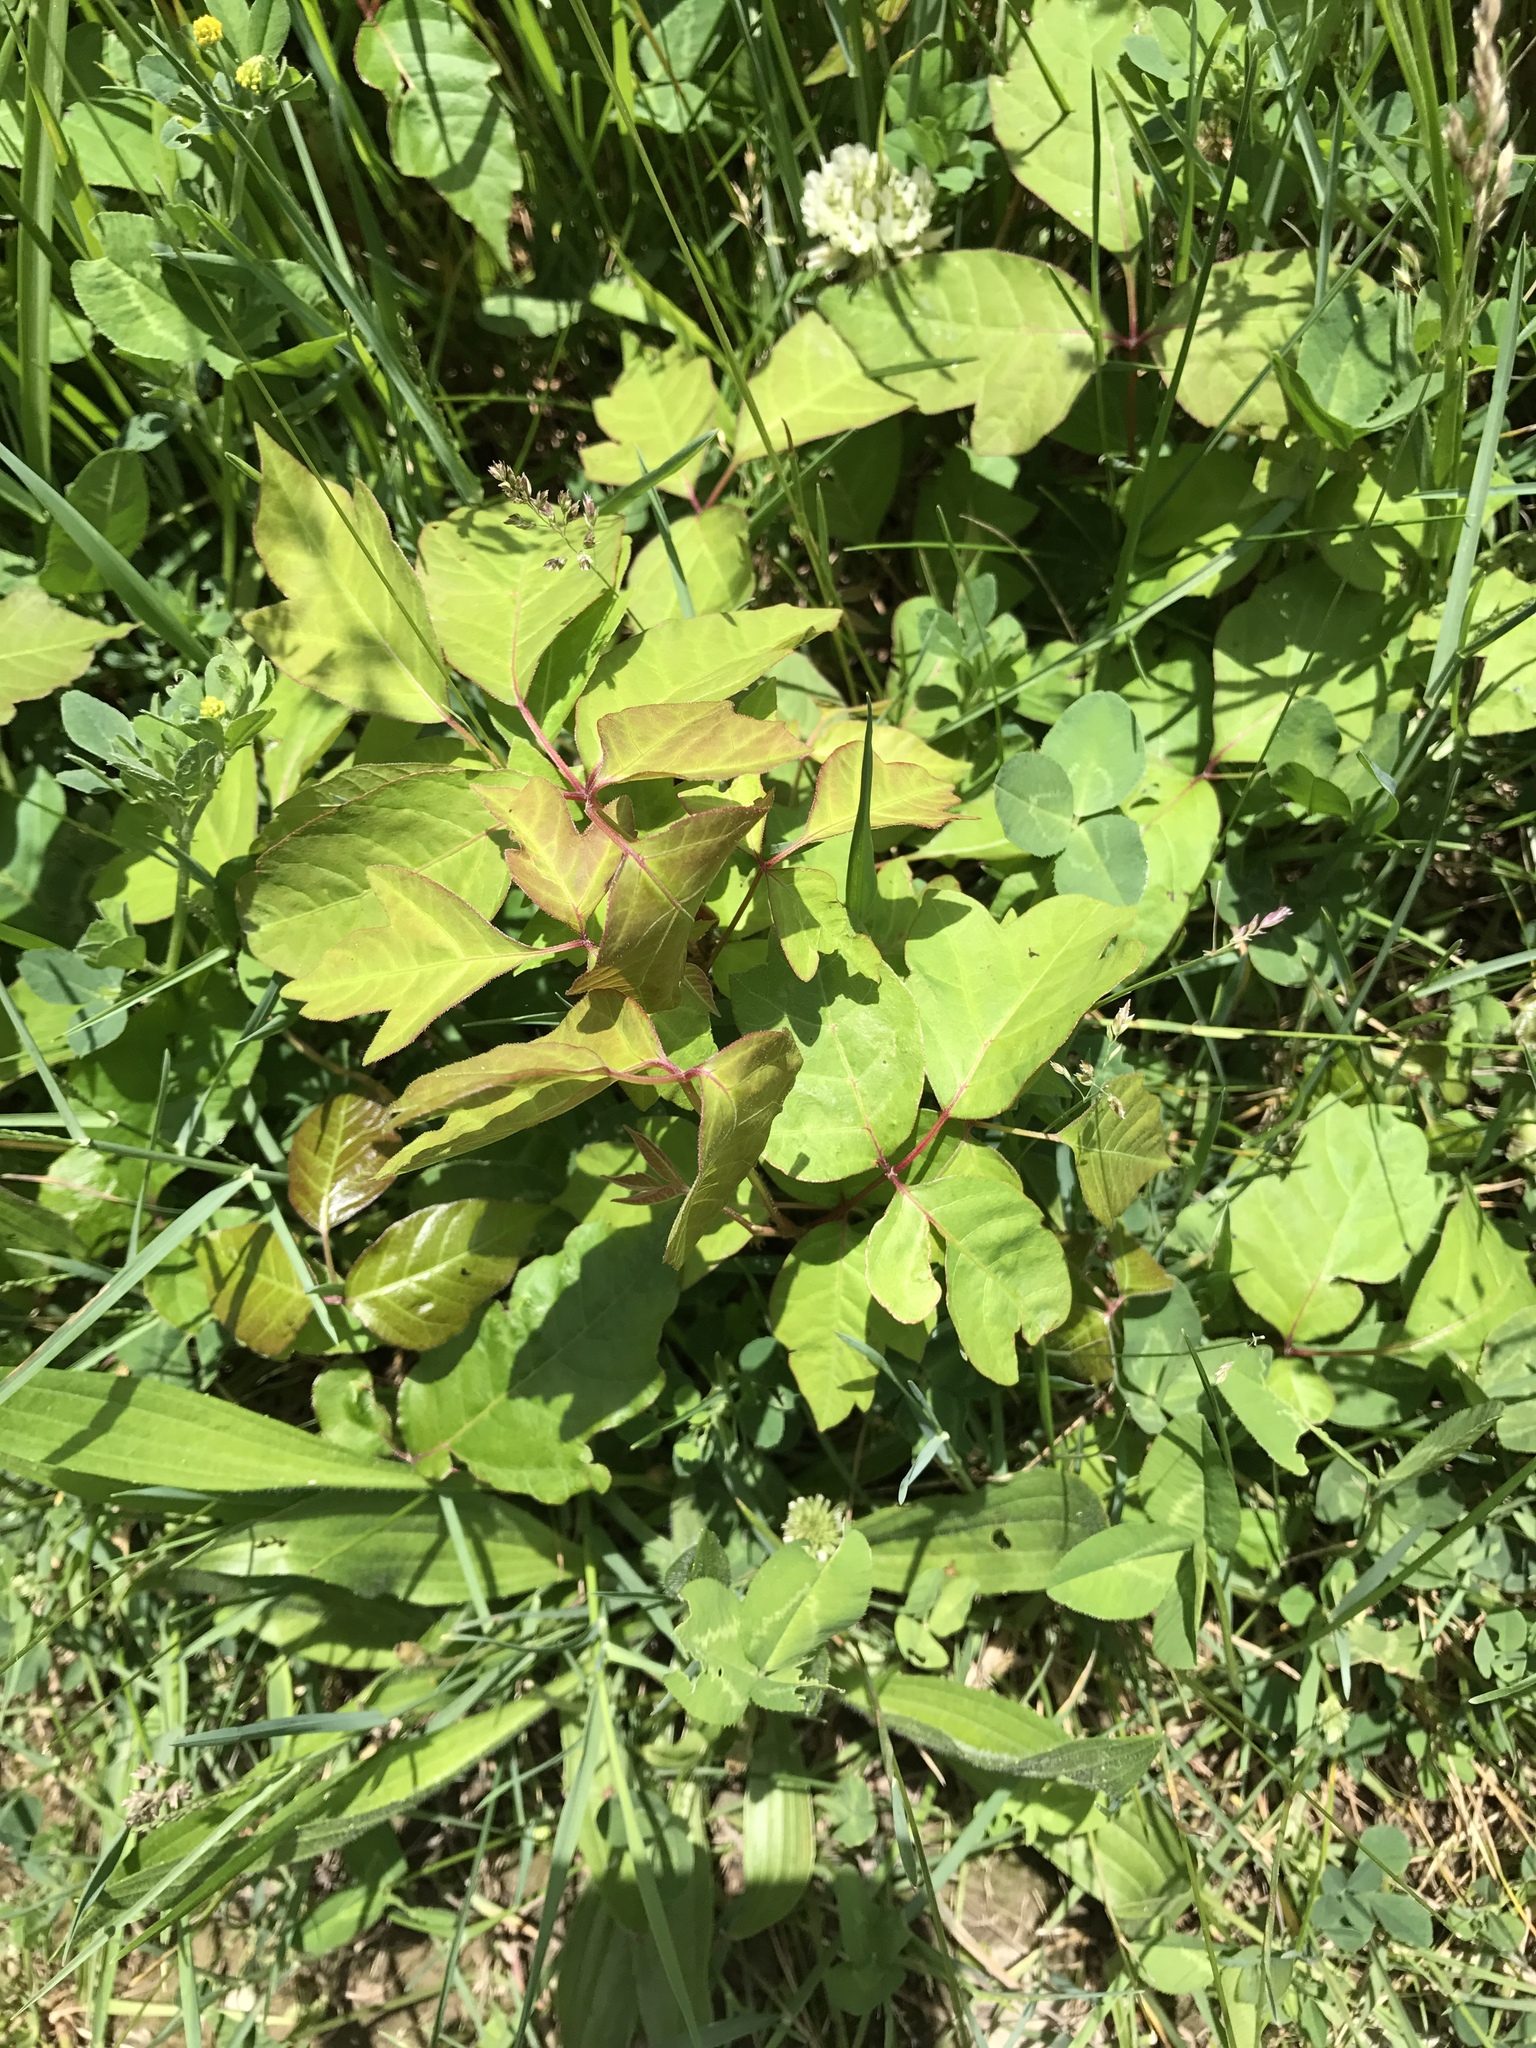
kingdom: Plantae
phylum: Tracheophyta
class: Magnoliopsida
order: Sapindales
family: Anacardiaceae
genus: Toxicodendron
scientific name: Toxicodendron radicans
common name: Poison ivy
